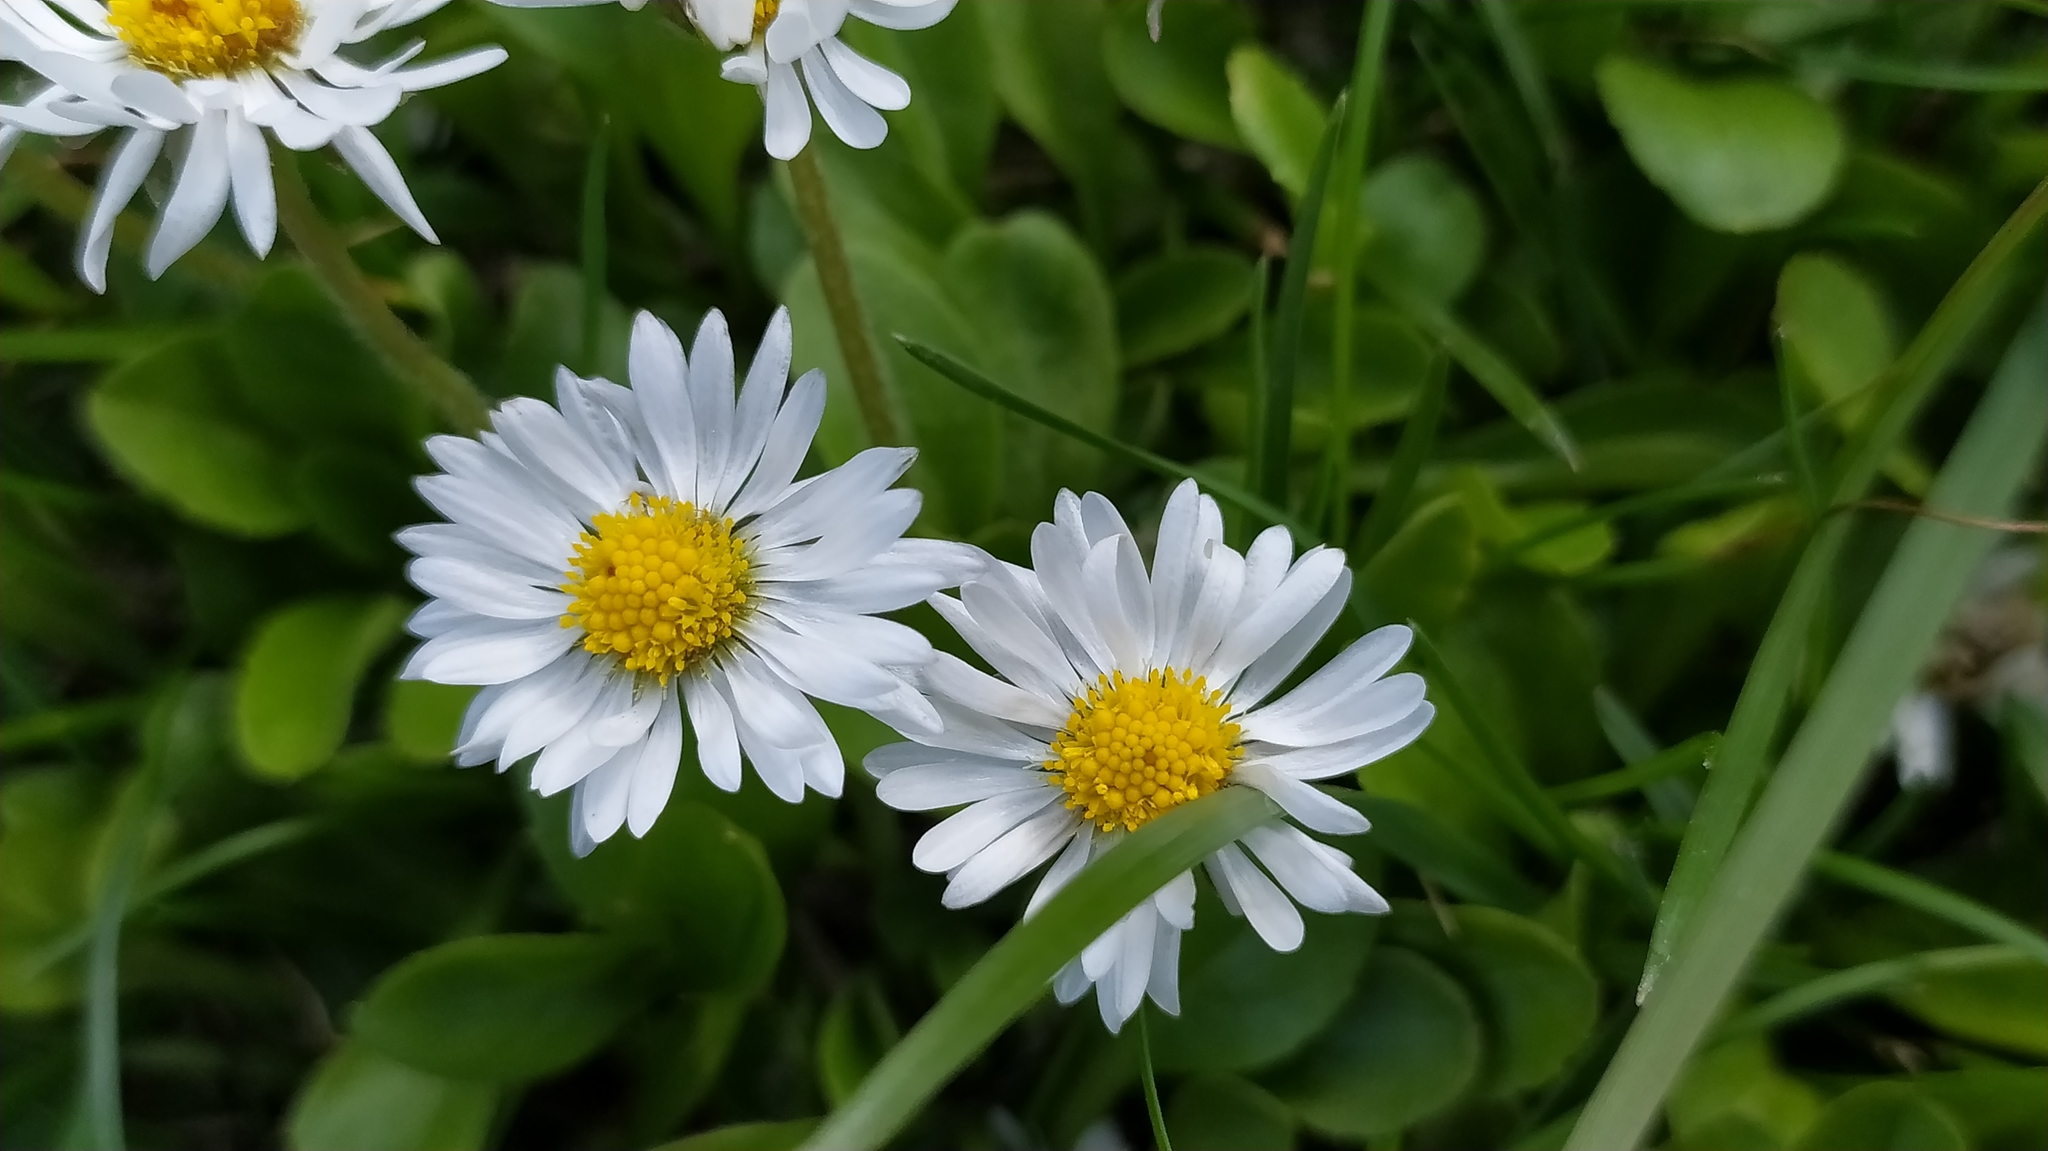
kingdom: Plantae
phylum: Tracheophyta
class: Magnoliopsida
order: Asterales
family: Asteraceae
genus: Bellis
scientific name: Bellis perennis
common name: Lawndaisy
